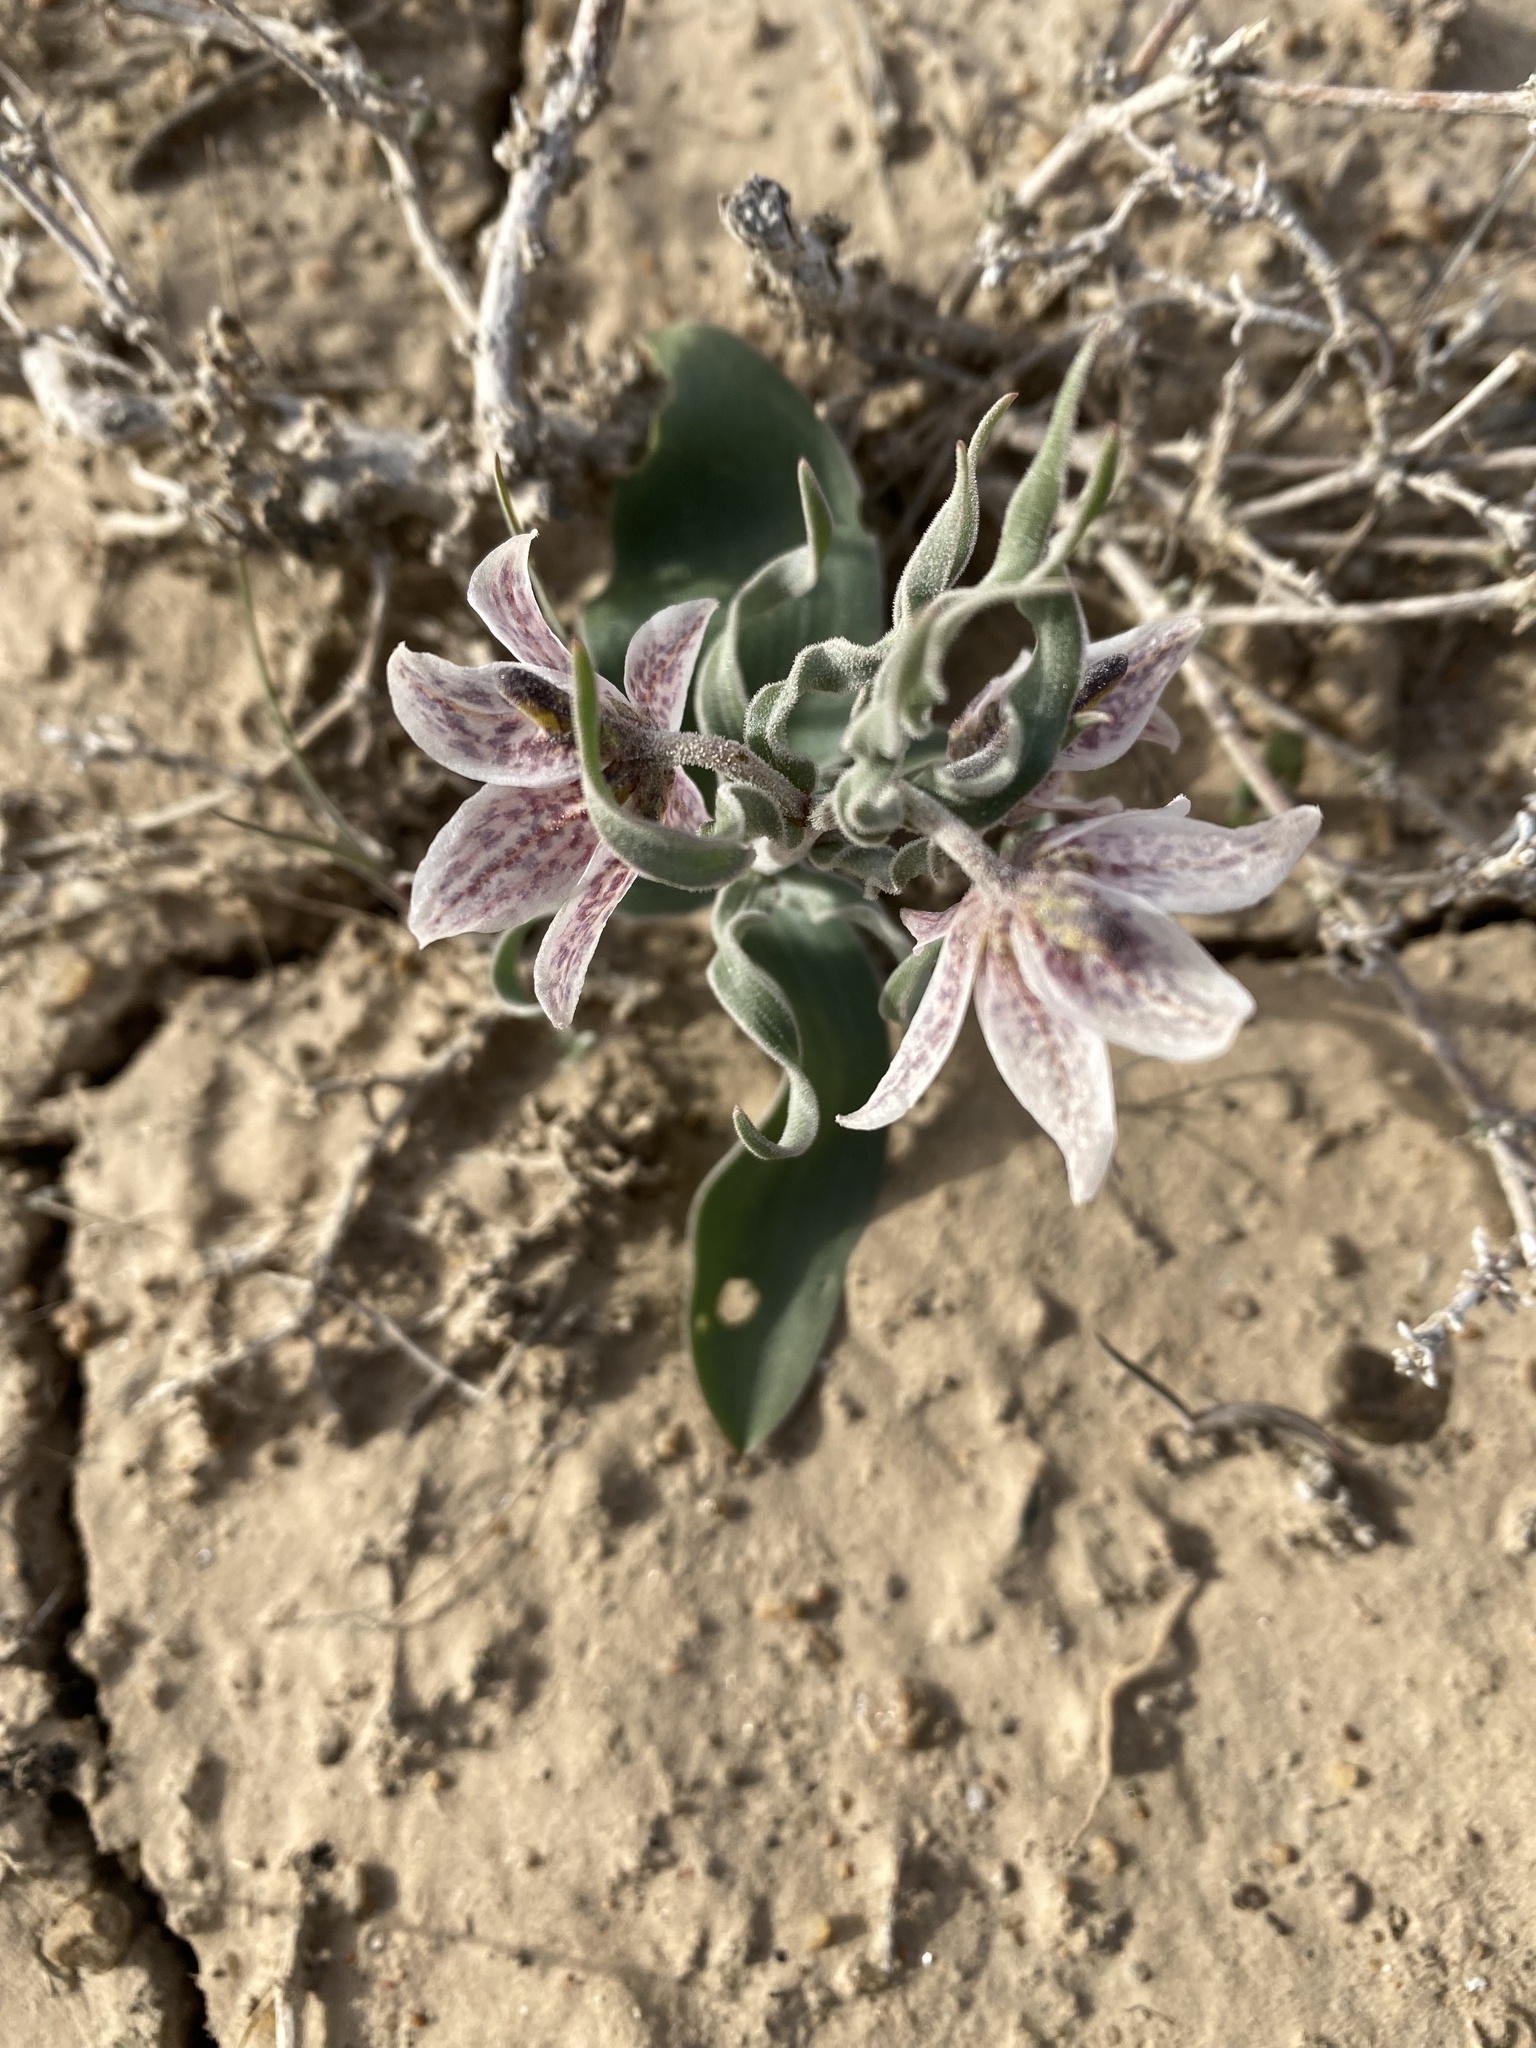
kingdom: Plantae
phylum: Tracheophyta
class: Liliopsida
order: Liliales
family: Liliaceae
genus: Fritillaria
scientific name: Fritillaria karelinii
